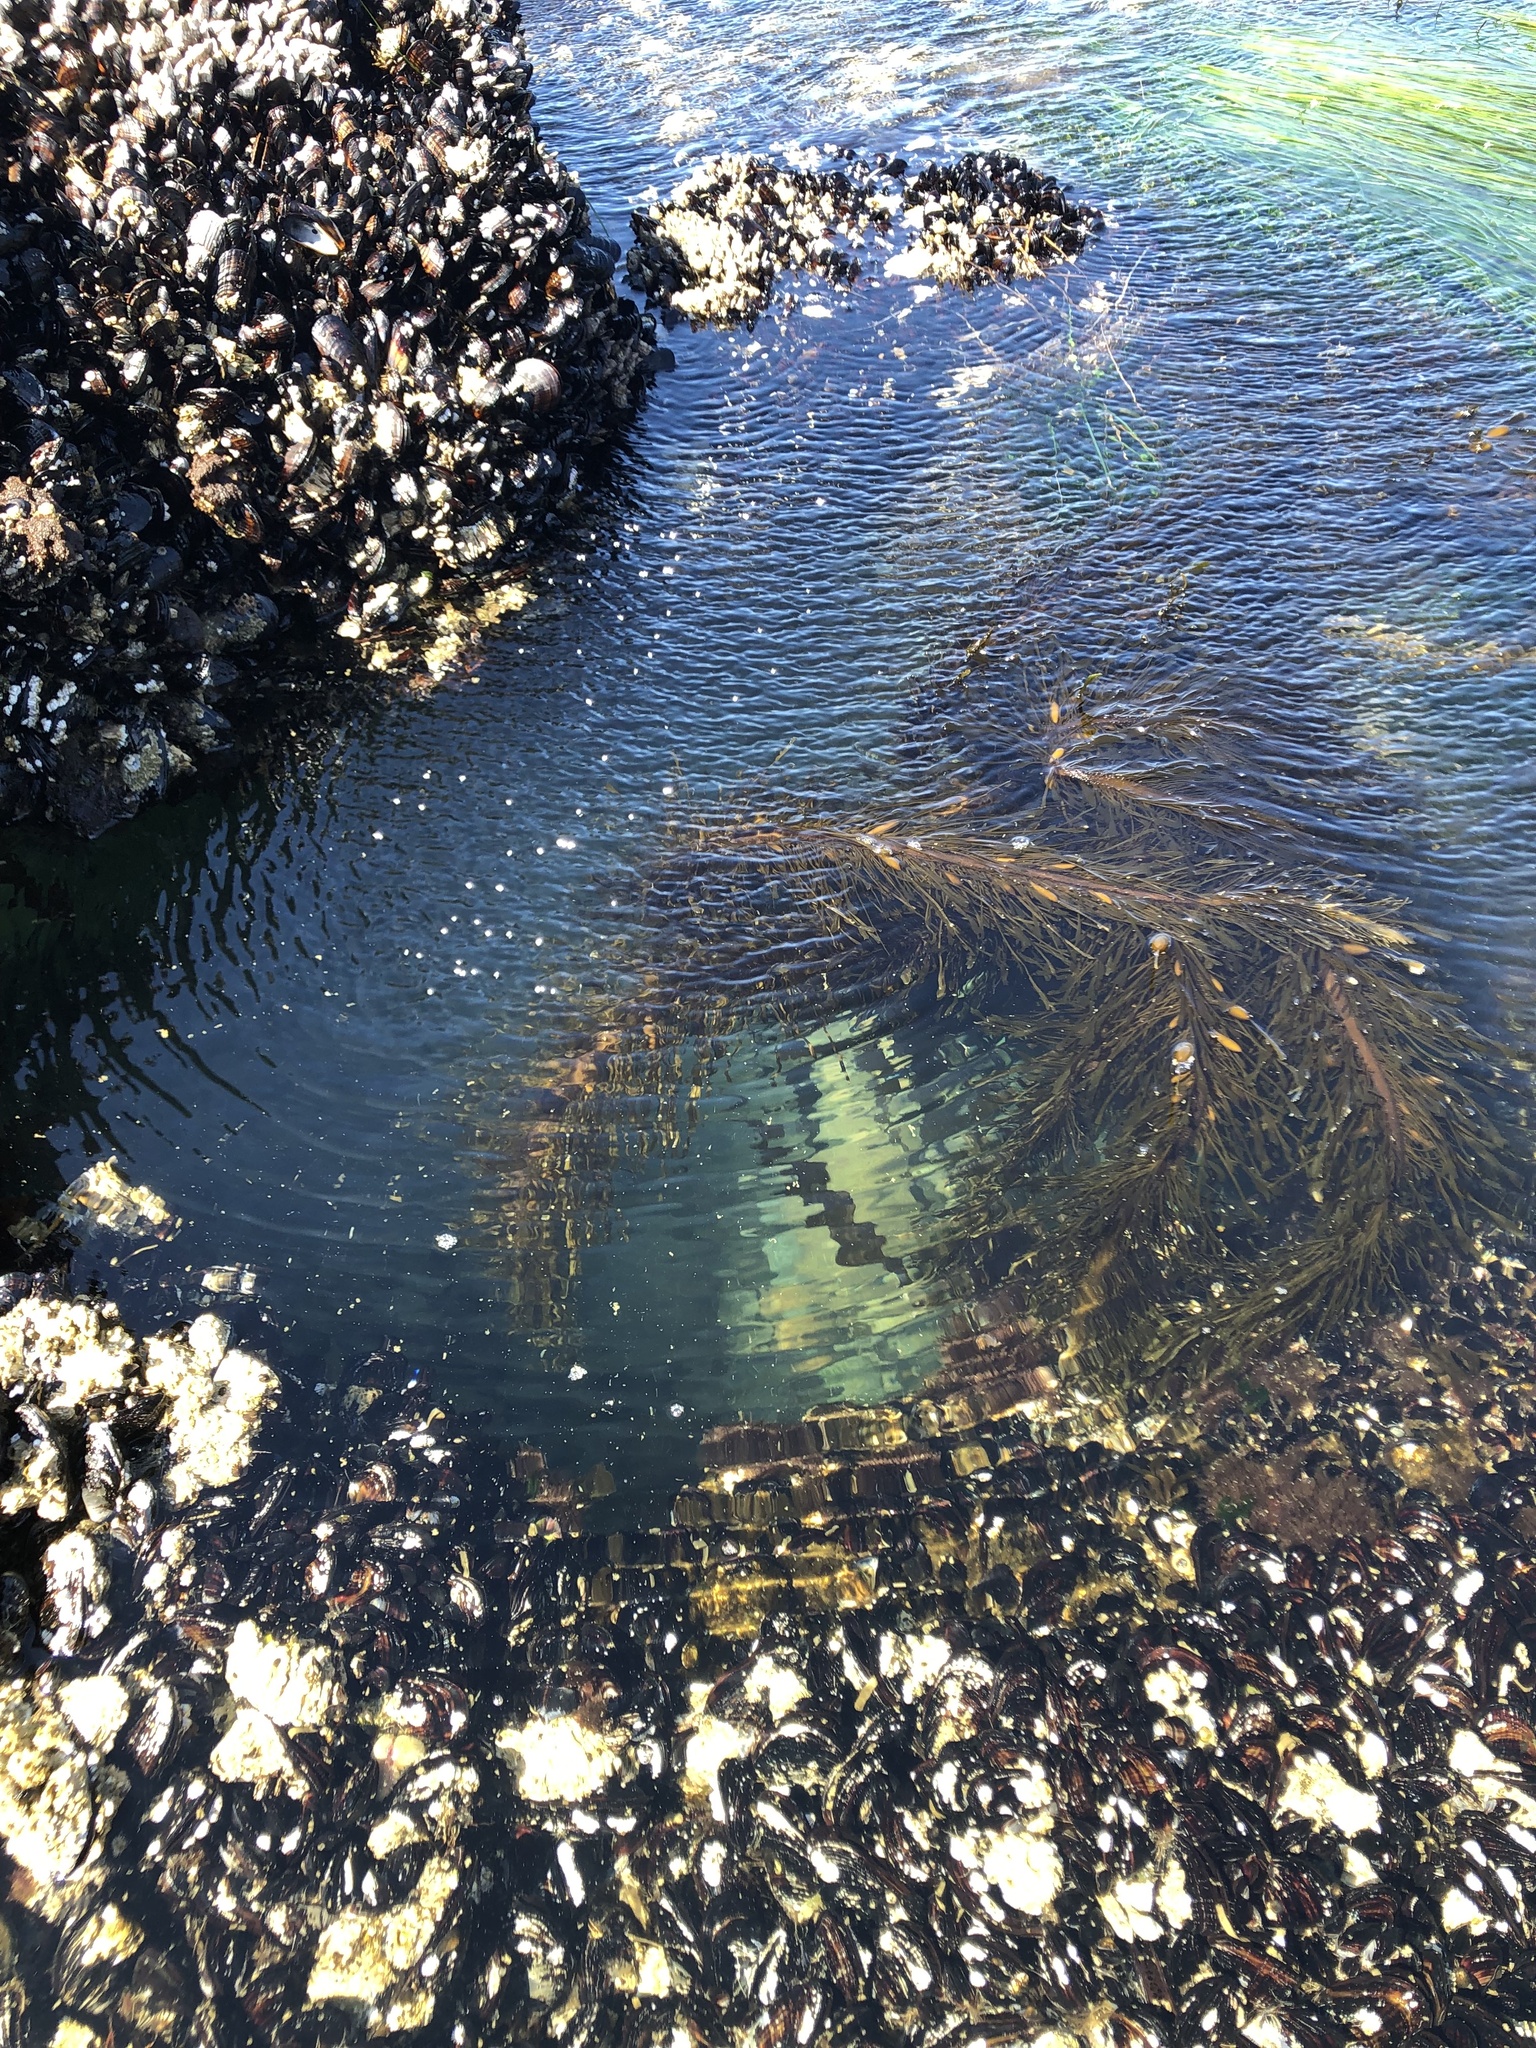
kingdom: Chromista
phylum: Ochrophyta
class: Phaeophyceae
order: Laminariales
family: Lessoniaceae
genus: Egregia
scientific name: Egregia menziesii
